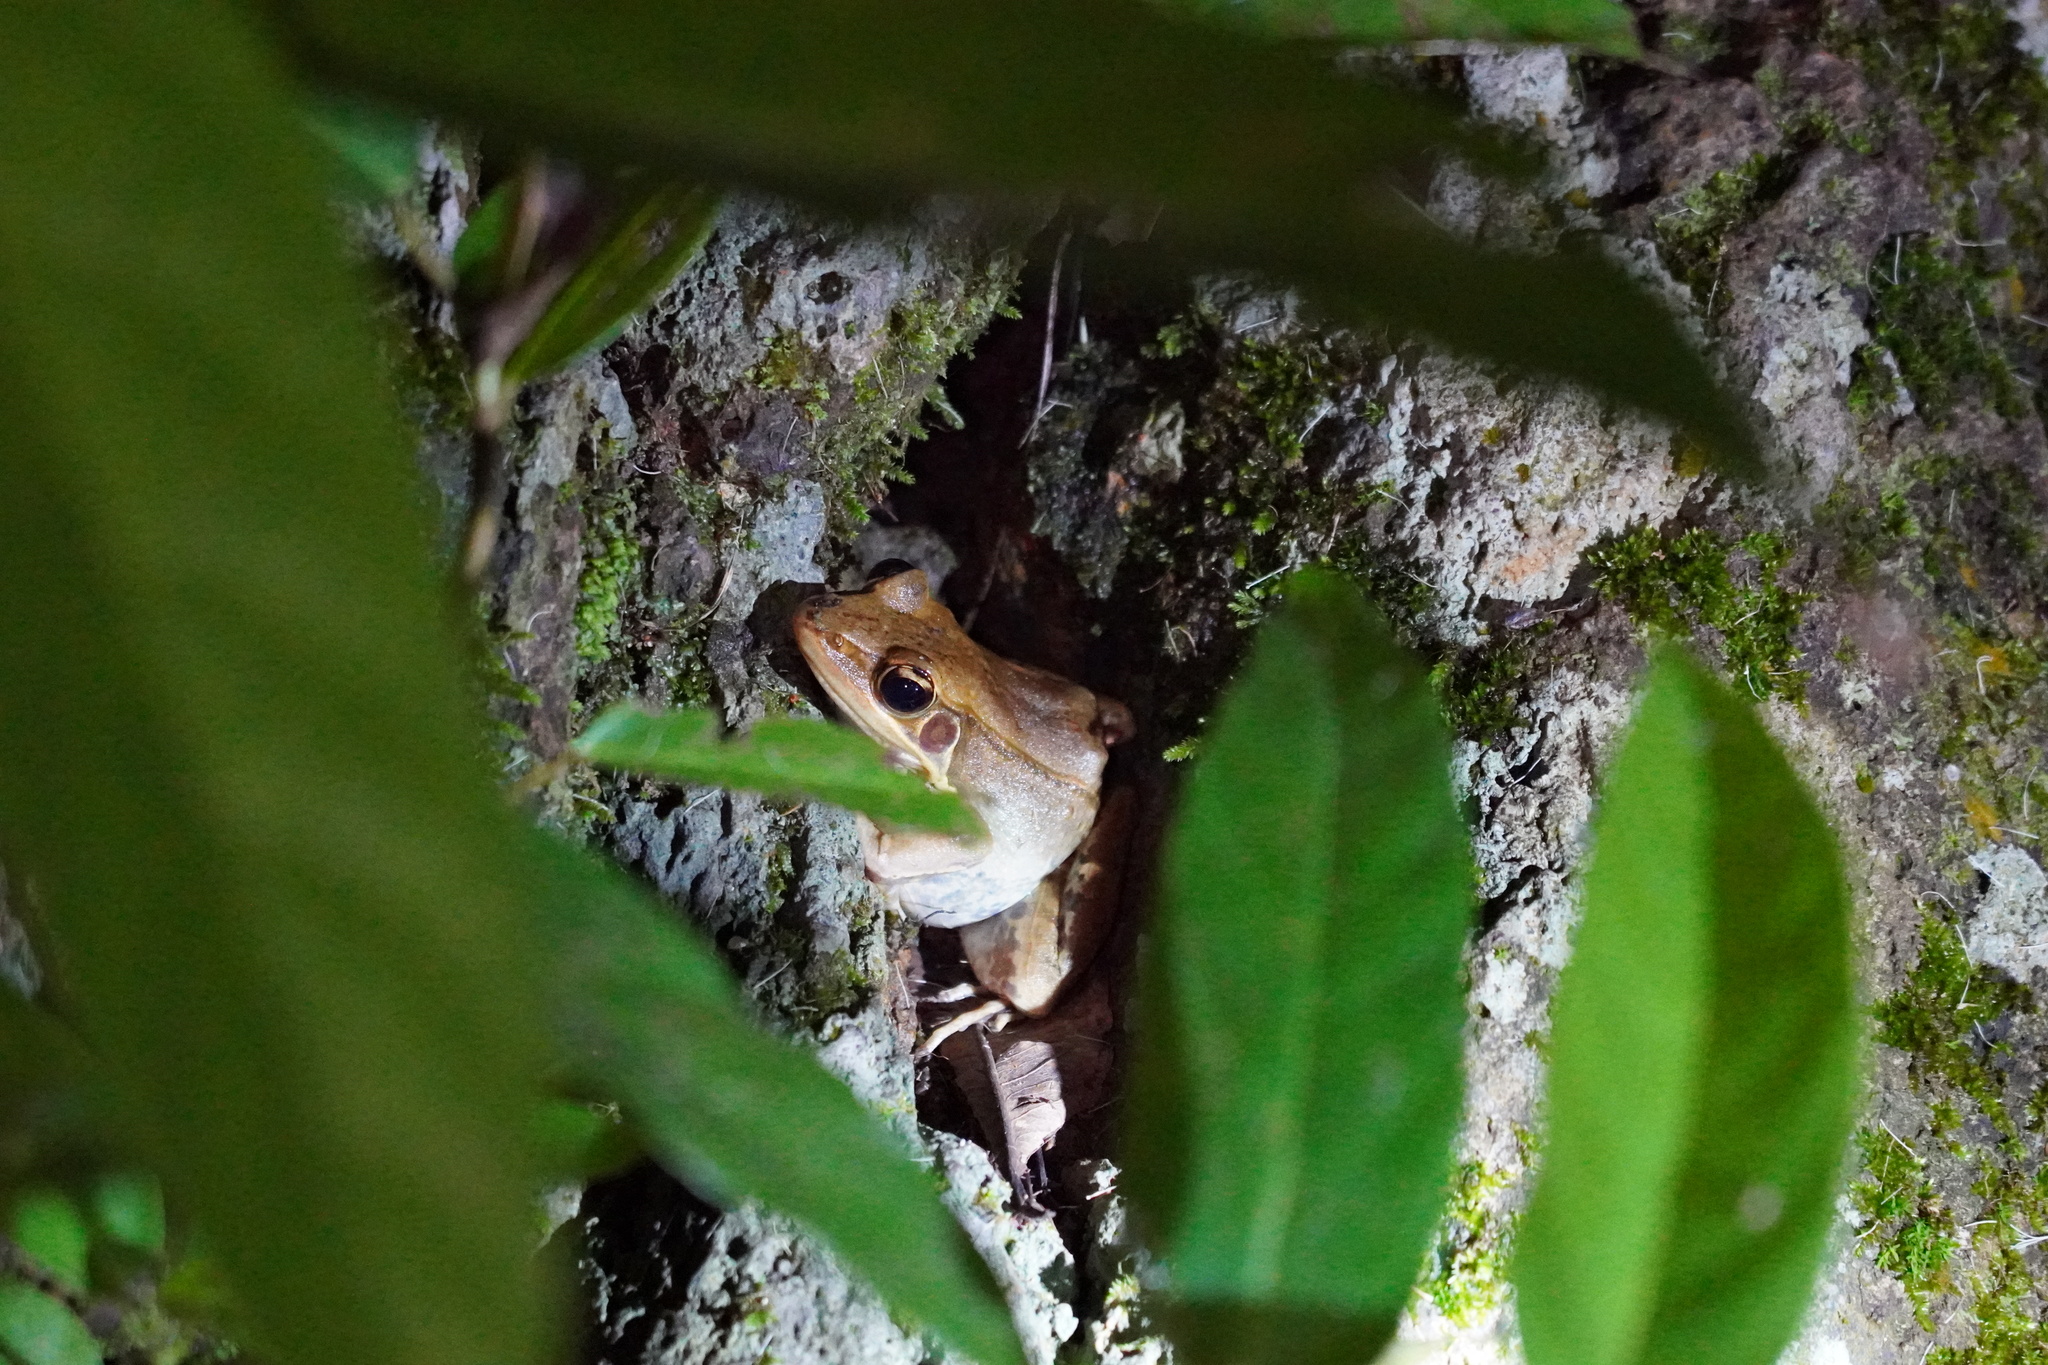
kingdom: Animalia
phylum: Chordata
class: Amphibia
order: Anura
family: Ranidae
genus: Sylvirana
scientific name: Sylvirana guentheri
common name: Guenther's amoy frog
